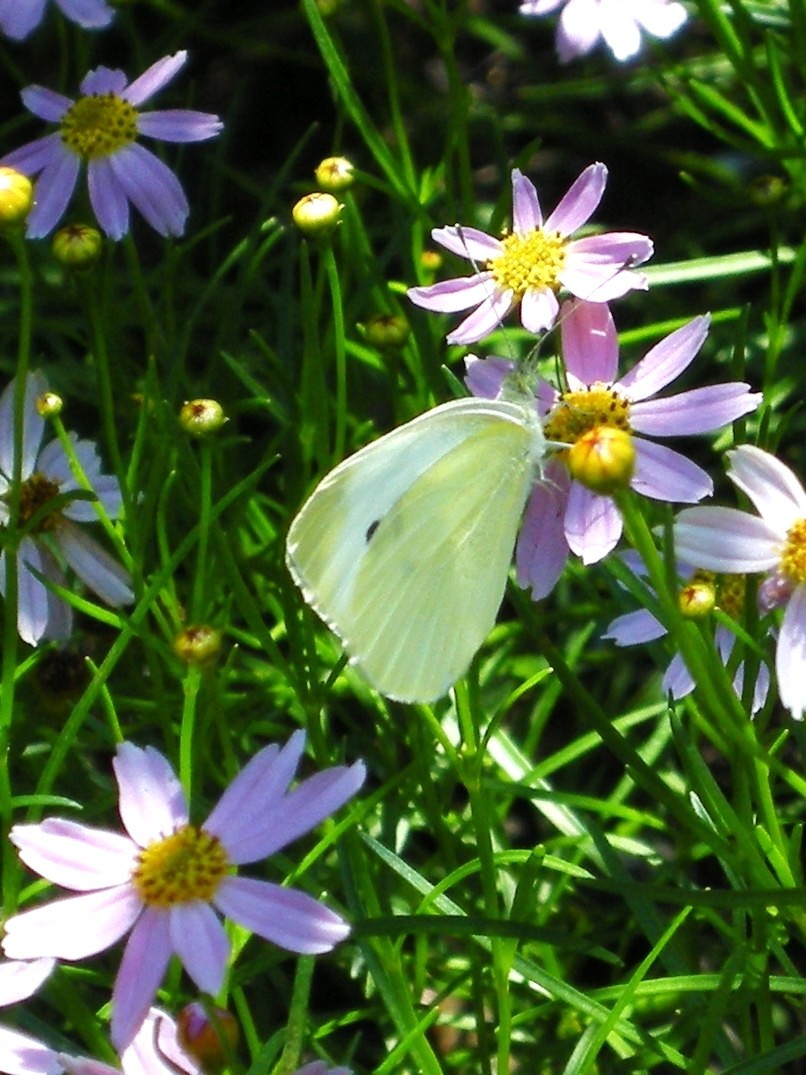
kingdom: Animalia
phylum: Arthropoda
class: Insecta
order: Lepidoptera
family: Pieridae
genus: Pieris
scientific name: Pieris rapae
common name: Small white
